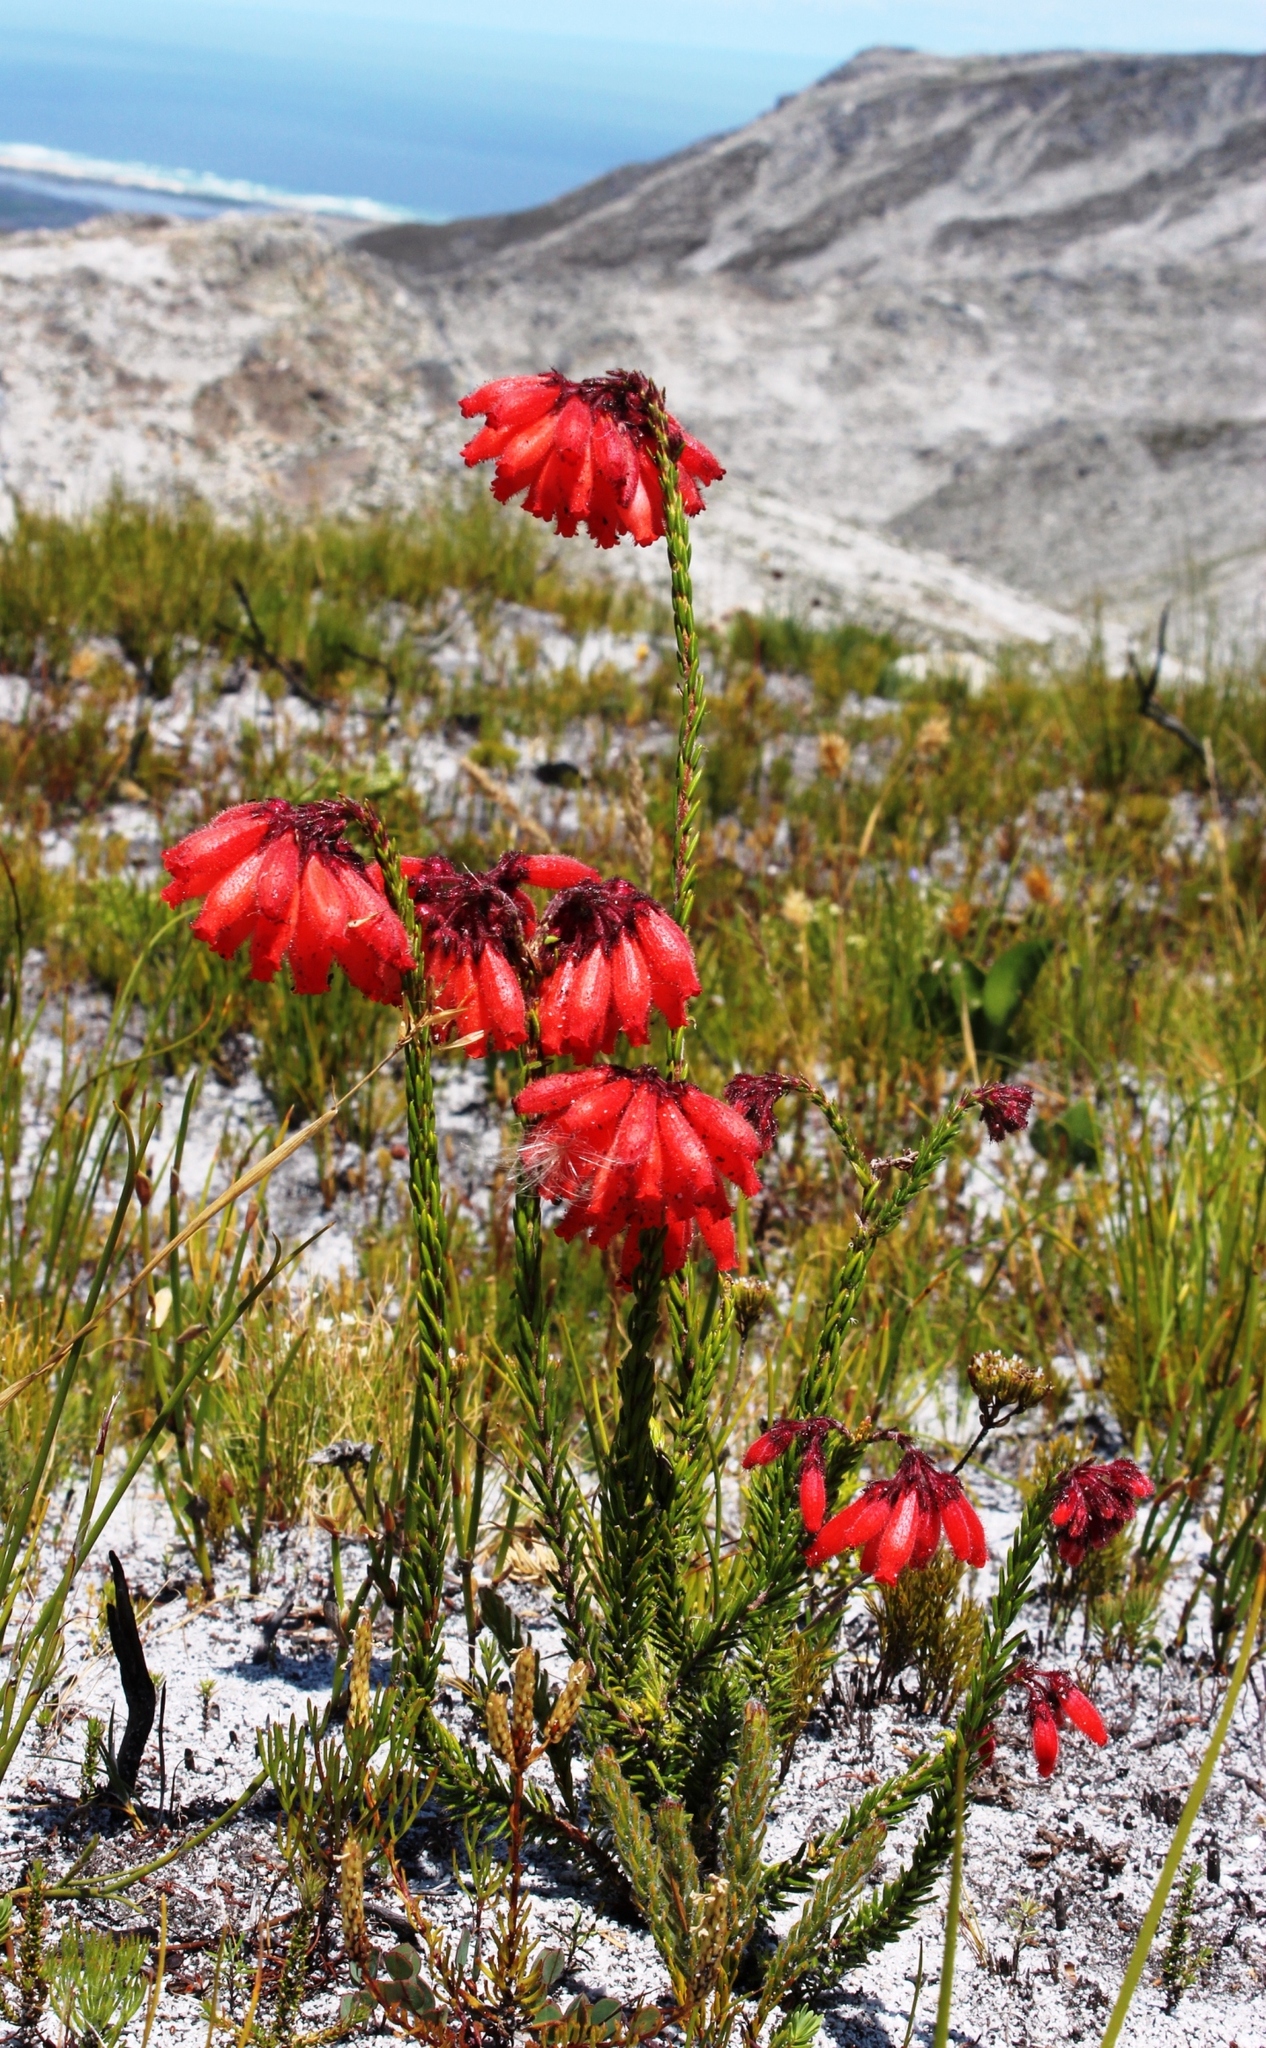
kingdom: Plantae
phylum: Tracheophyta
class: Magnoliopsida
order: Ericales
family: Ericaceae
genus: Erica
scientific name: Erica cerinthoides
